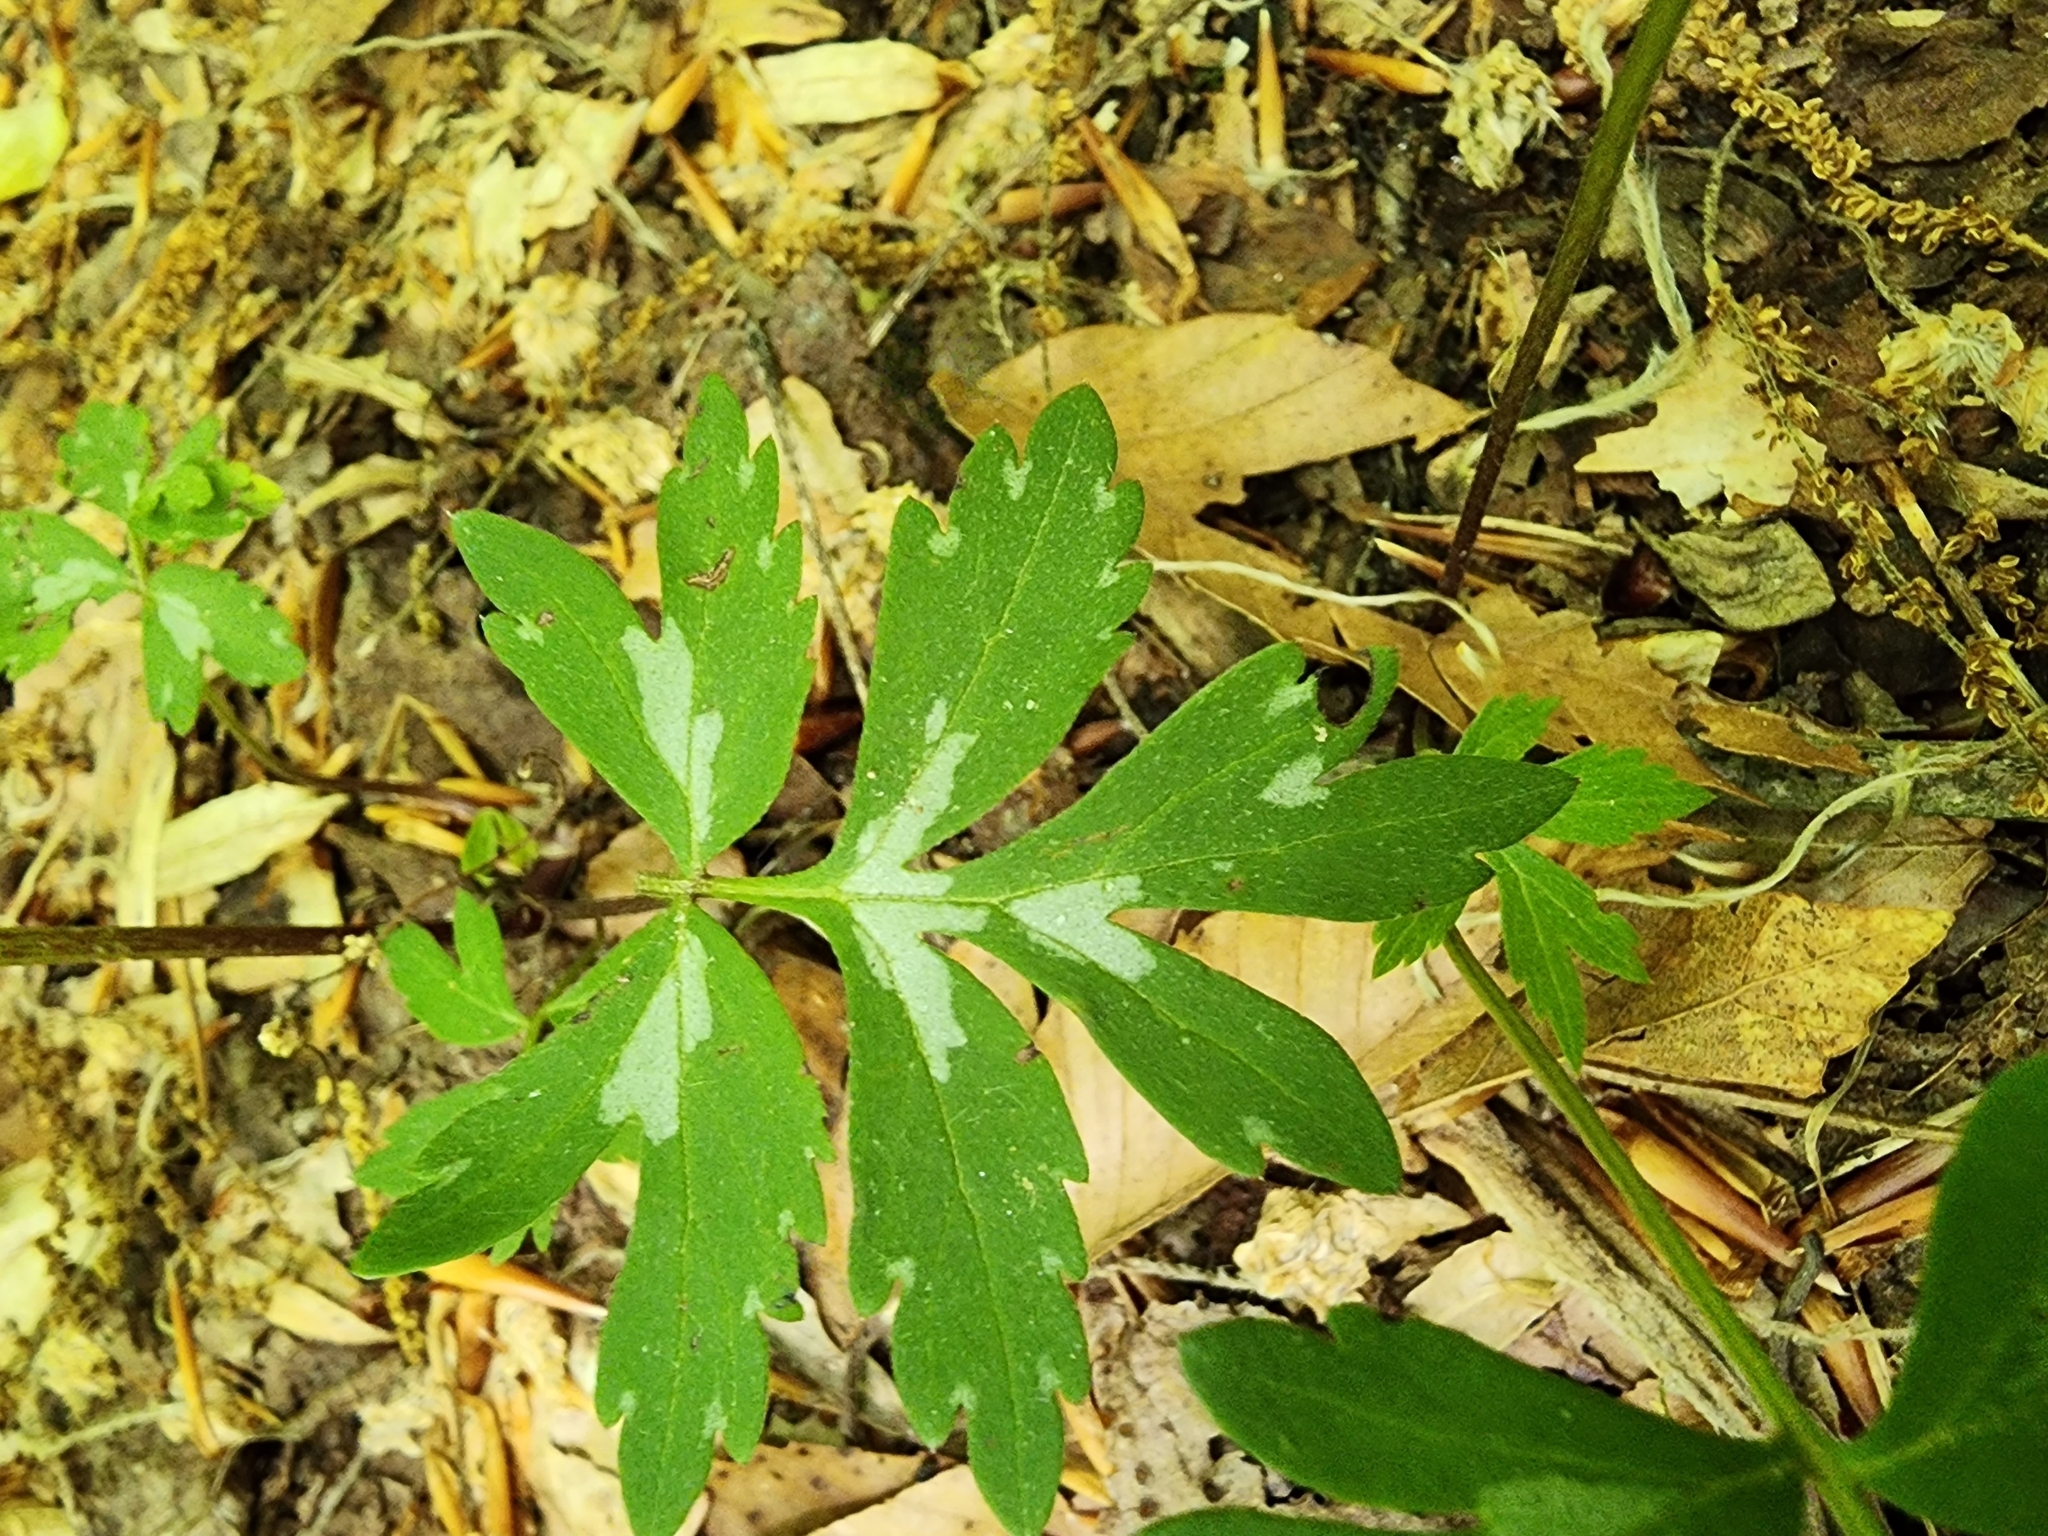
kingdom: Plantae
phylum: Tracheophyta
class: Magnoliopsida
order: Boraginales
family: Hydrophyllaceae
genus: Hydrophyllum
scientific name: Hydrophyllum virginianum
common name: Virginia waterleaf
